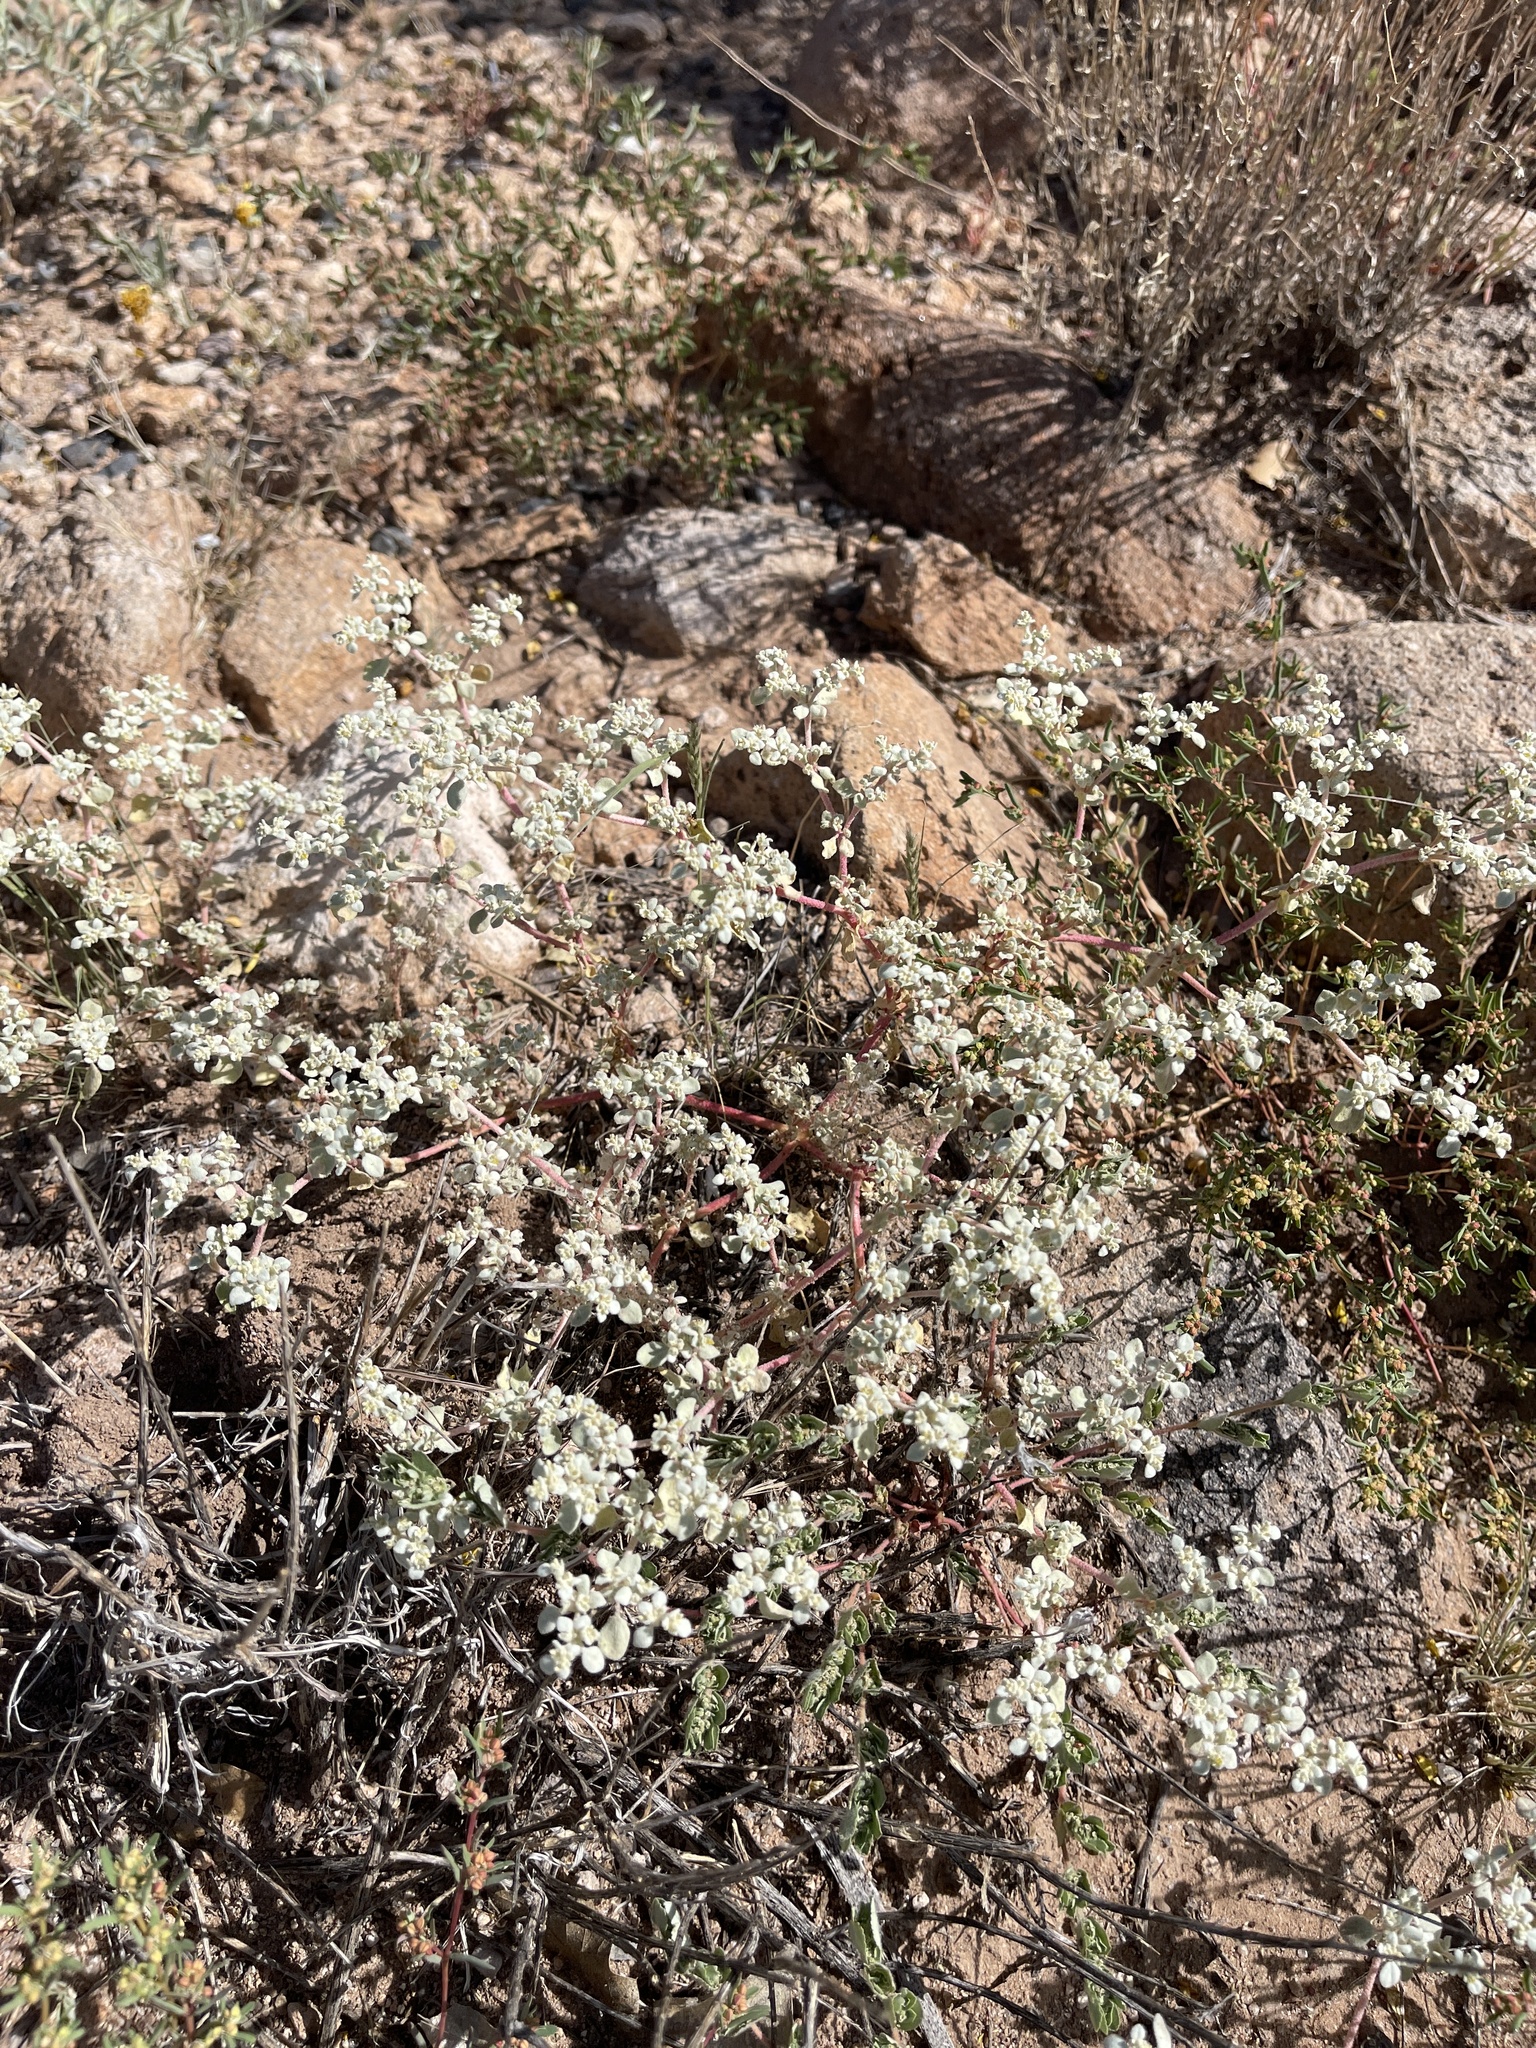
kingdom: Plantae
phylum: Tracheophyta
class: Magnoliopsida
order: Caryophyllales
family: Amaranthaceae
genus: Tidestromia
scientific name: Tidestromia lanuginosa
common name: Woolly tidestromia
